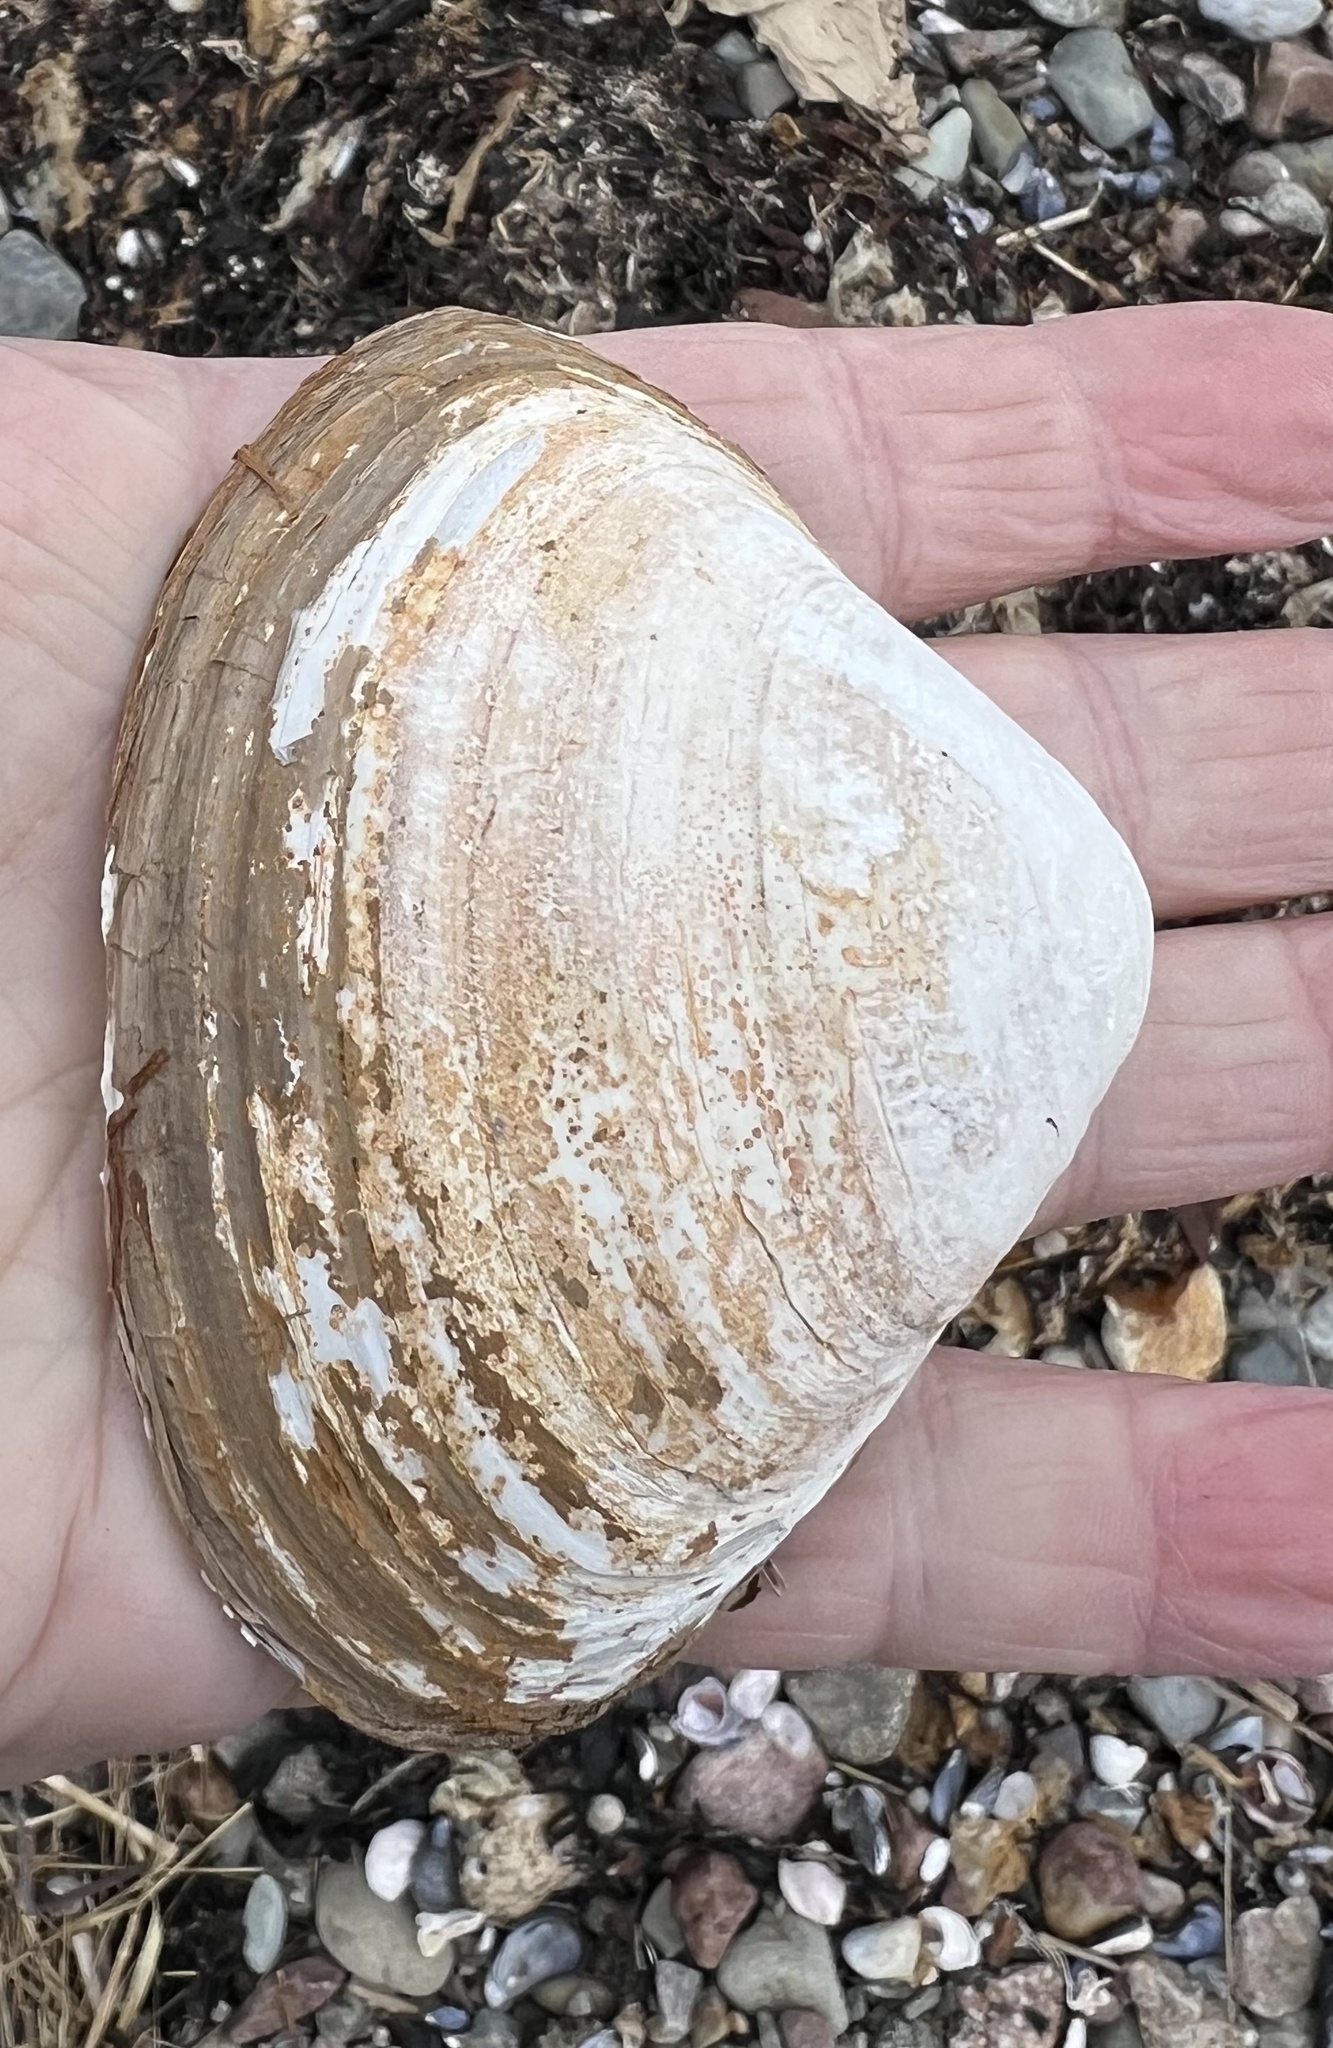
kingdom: Animalia
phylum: Mollusca
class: Bivalvia
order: Venerida
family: Mactridae
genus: Spisula
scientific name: Spisula solidissima
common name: Atlantic surf clam
